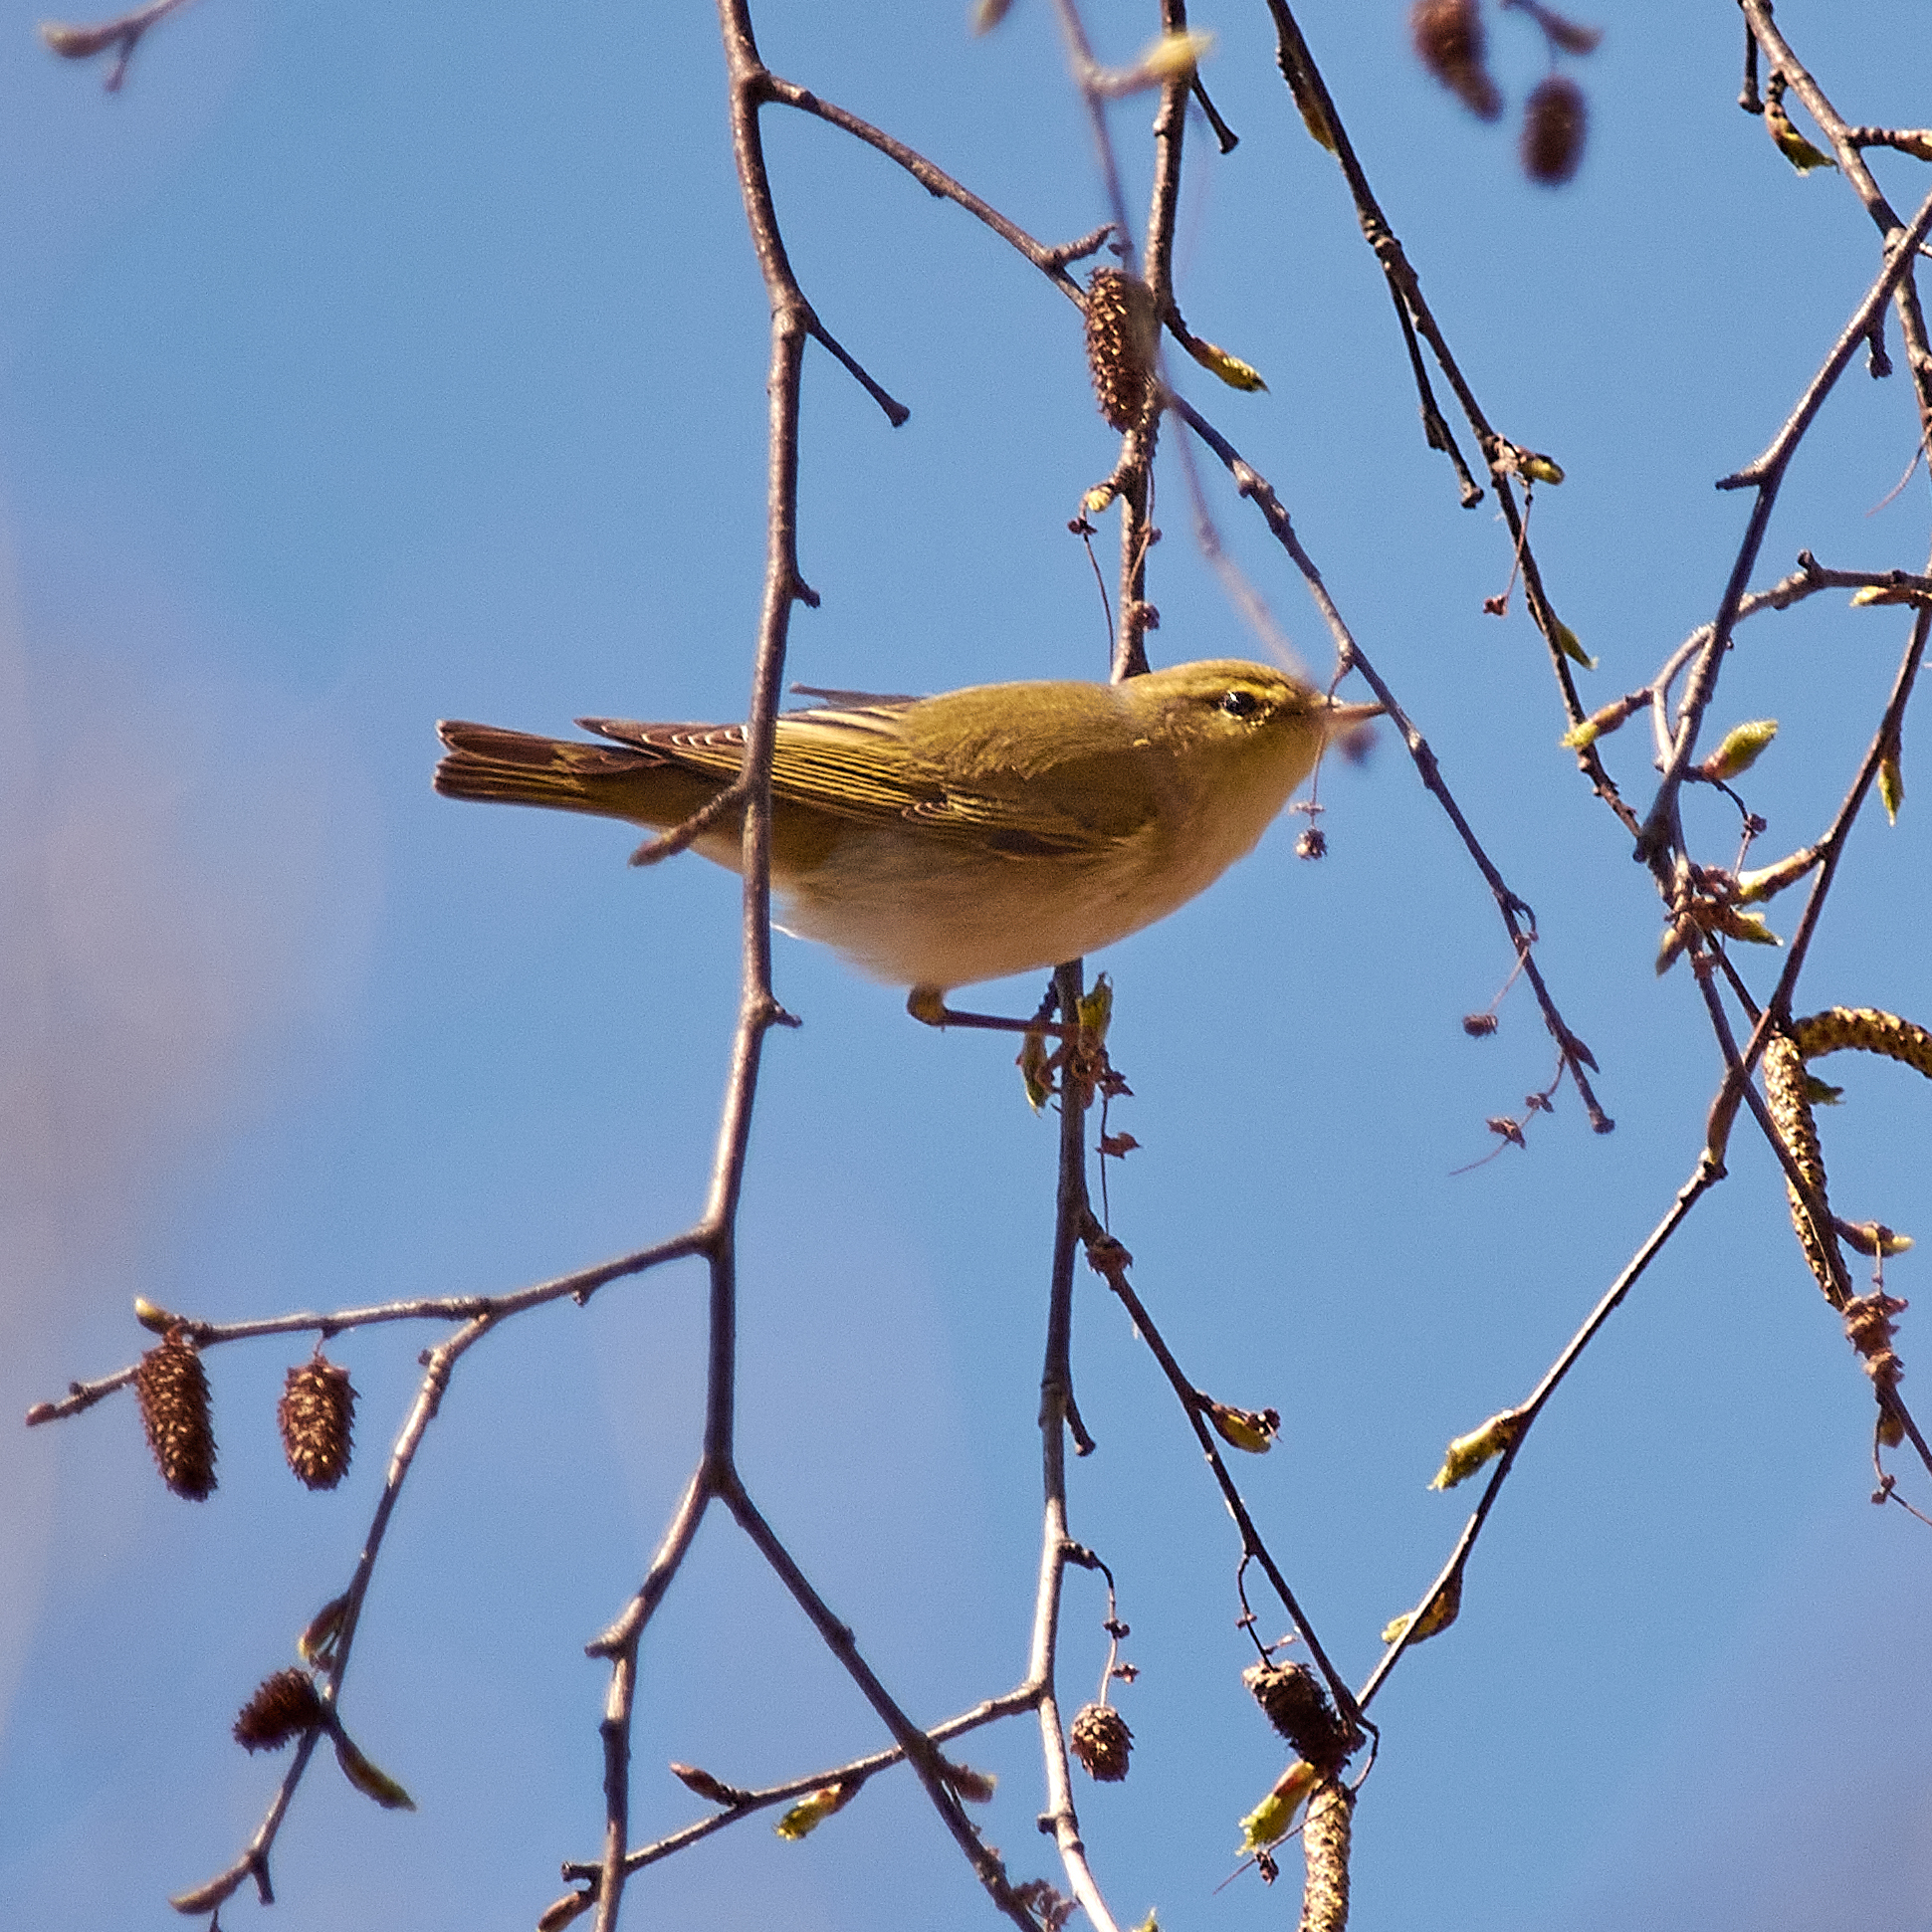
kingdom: Animalia
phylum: Chordata
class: Aves
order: Passeriformes
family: Phylloscopidae
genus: Phylloscopus
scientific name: Phylloscopus trochilus
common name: Willow warbler
